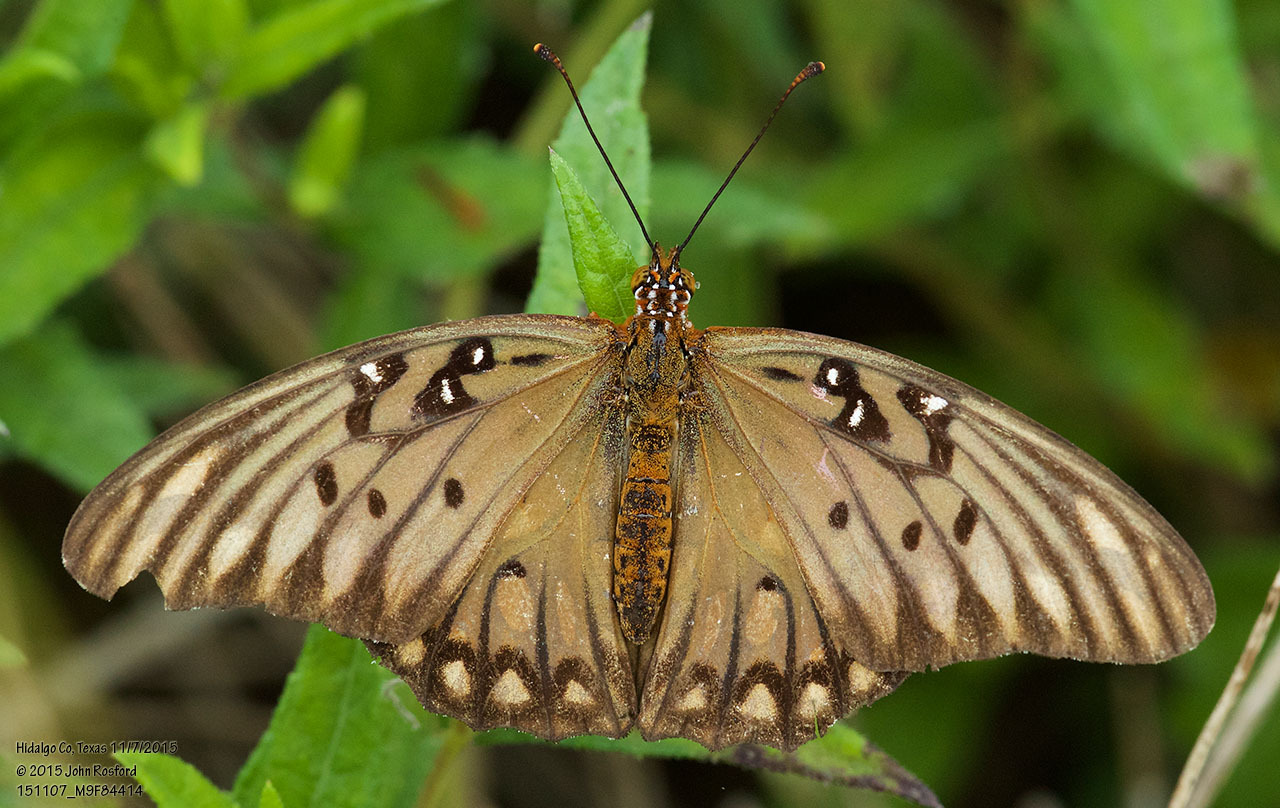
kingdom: Animalia
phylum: Arthropoda
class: Insecta
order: Lepidoptera
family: Nymphalidae
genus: Dione
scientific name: Dione vanillae
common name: Gulf fritillary
